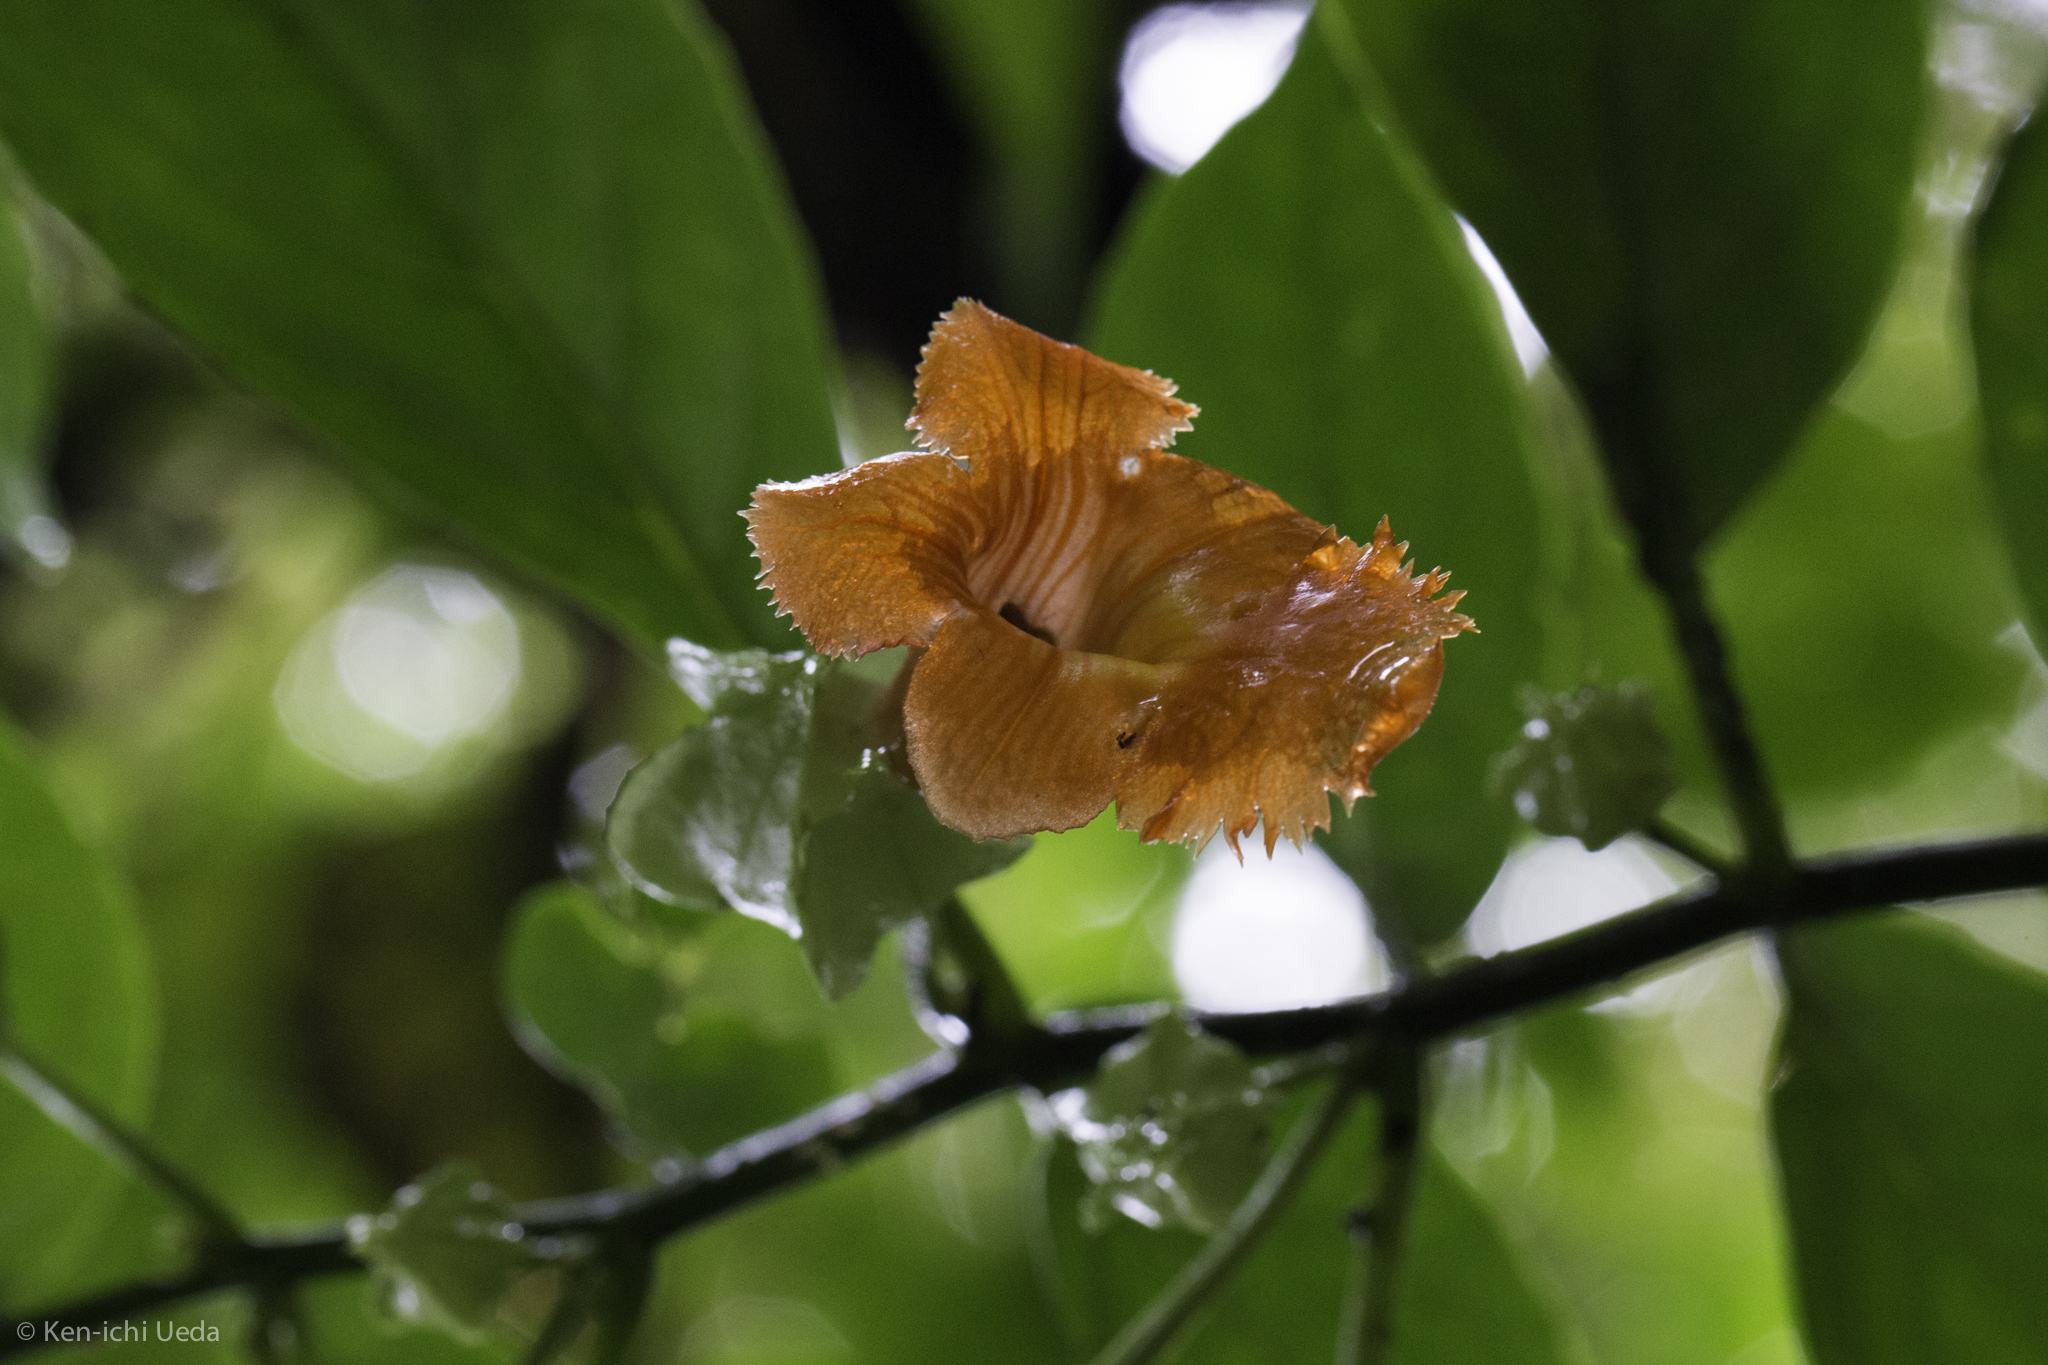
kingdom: Plantae
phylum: Tracheophyta
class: Magnoliopsida
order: Lamiales
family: Gesneriaceae
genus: Drymonia
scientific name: Drymonia rubra
